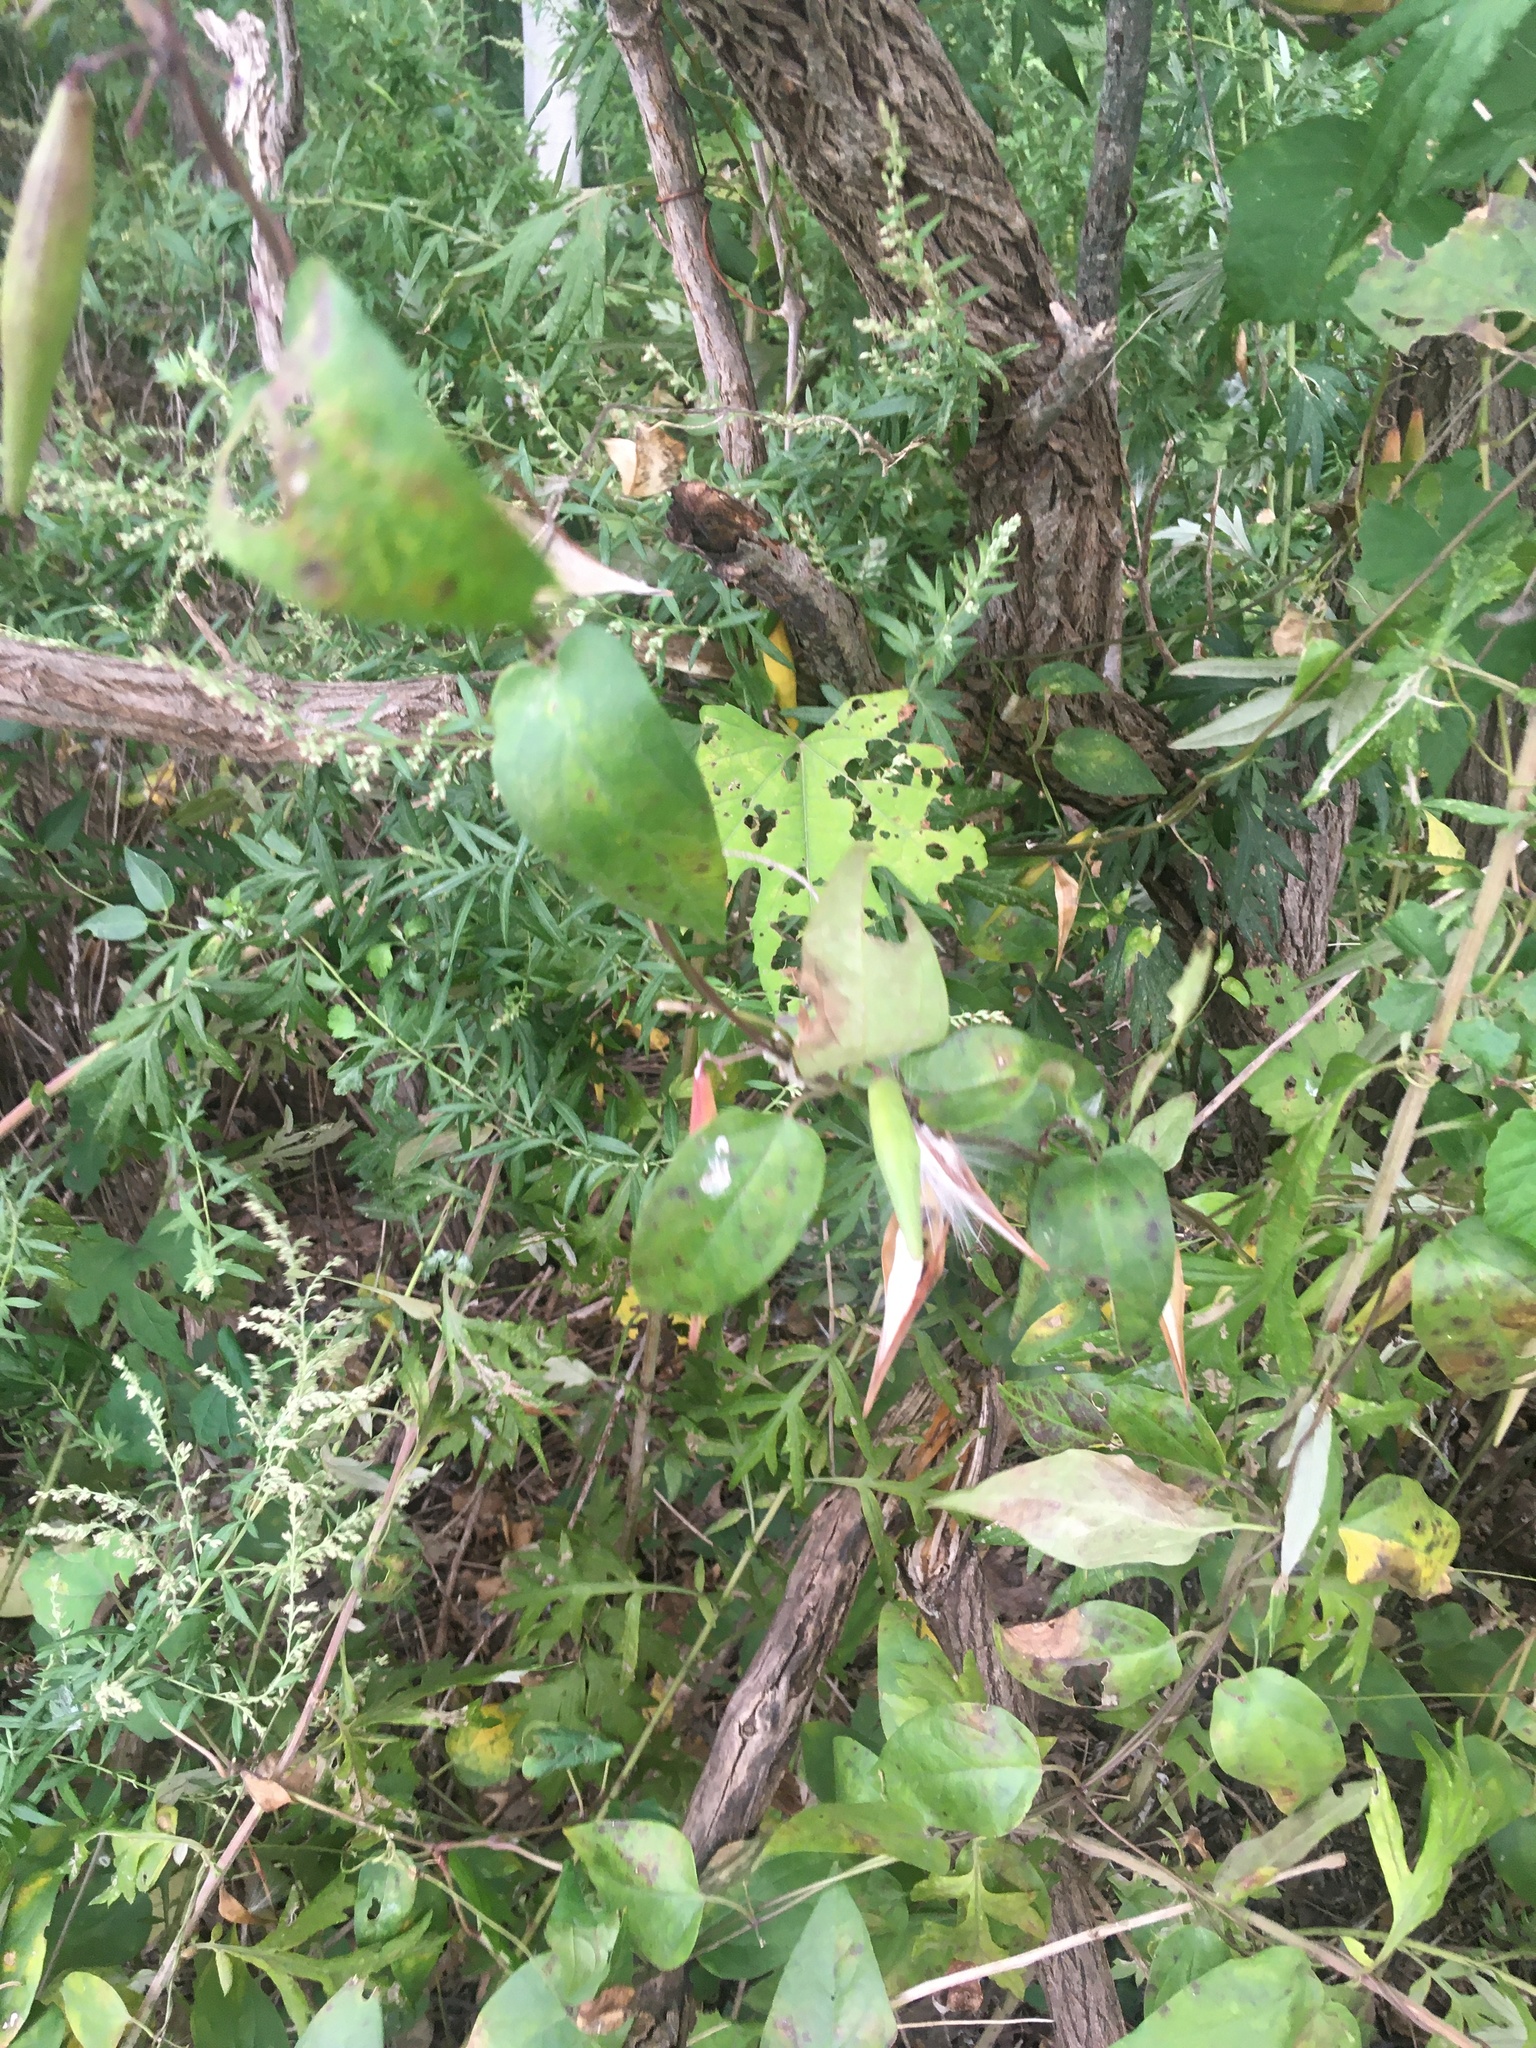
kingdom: Plantae
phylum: Tracheophyta
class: Magnoliopsida
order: Gentianales
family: Apocynaceae
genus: Vincetoxicum
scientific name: Vincetoxicum nigrum
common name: Black swallow-wort
